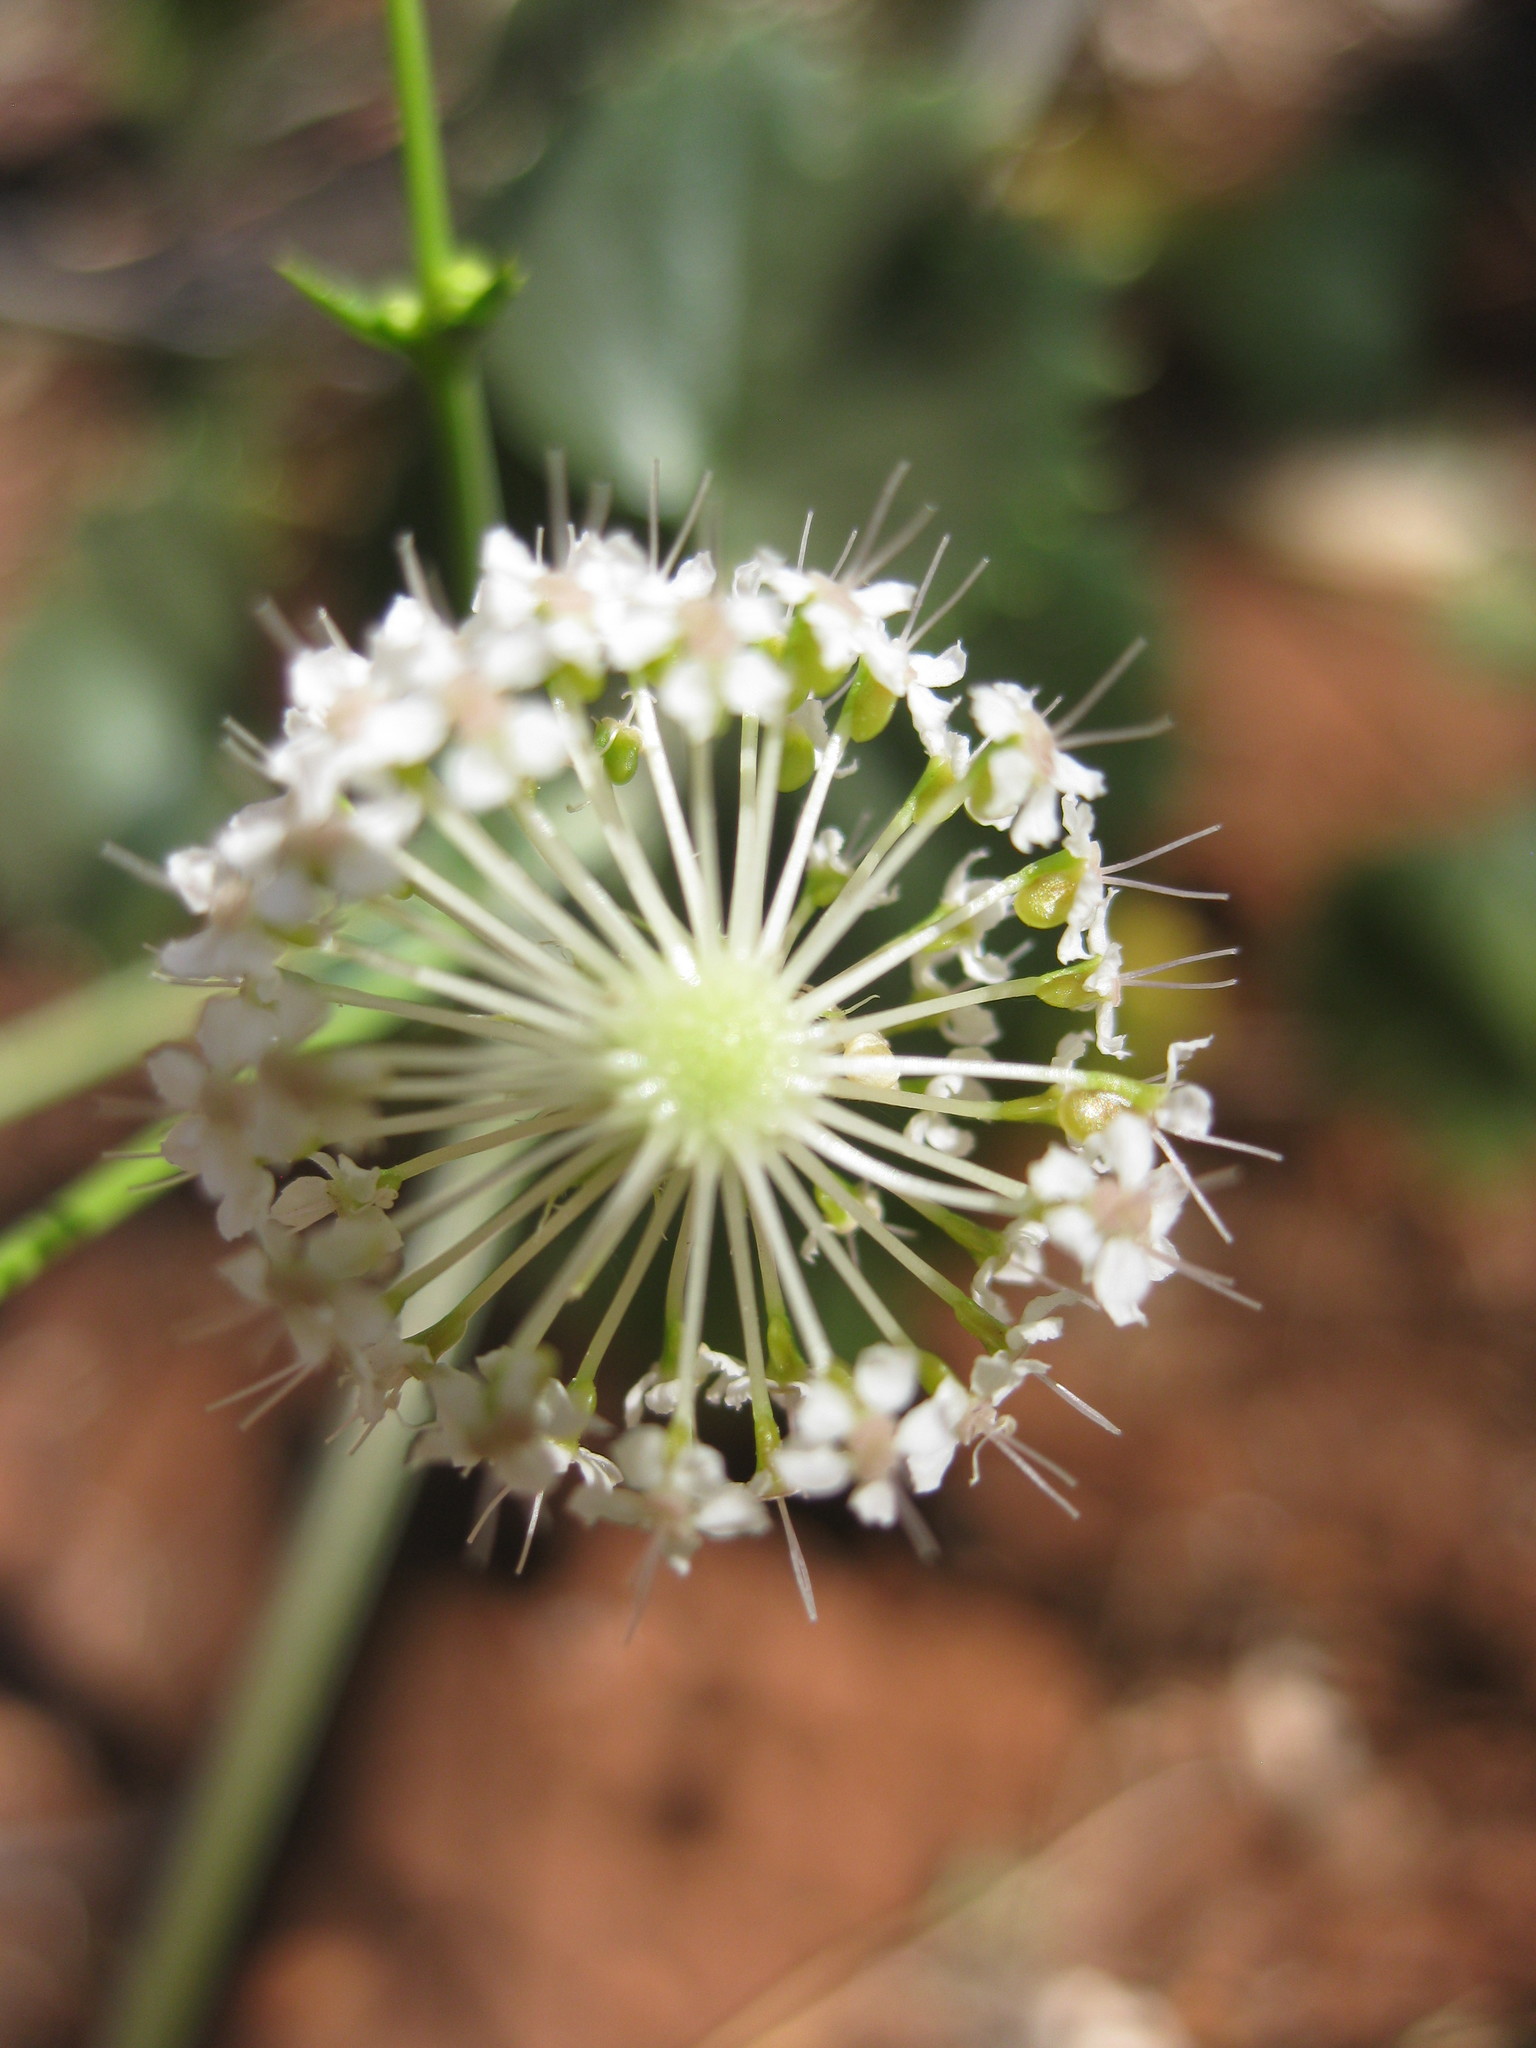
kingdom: Plantae
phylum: Tracheophyta
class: Magnoliopsida
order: Apiales
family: Araliaceae
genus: Trachymene
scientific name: Trachymene oleracea
